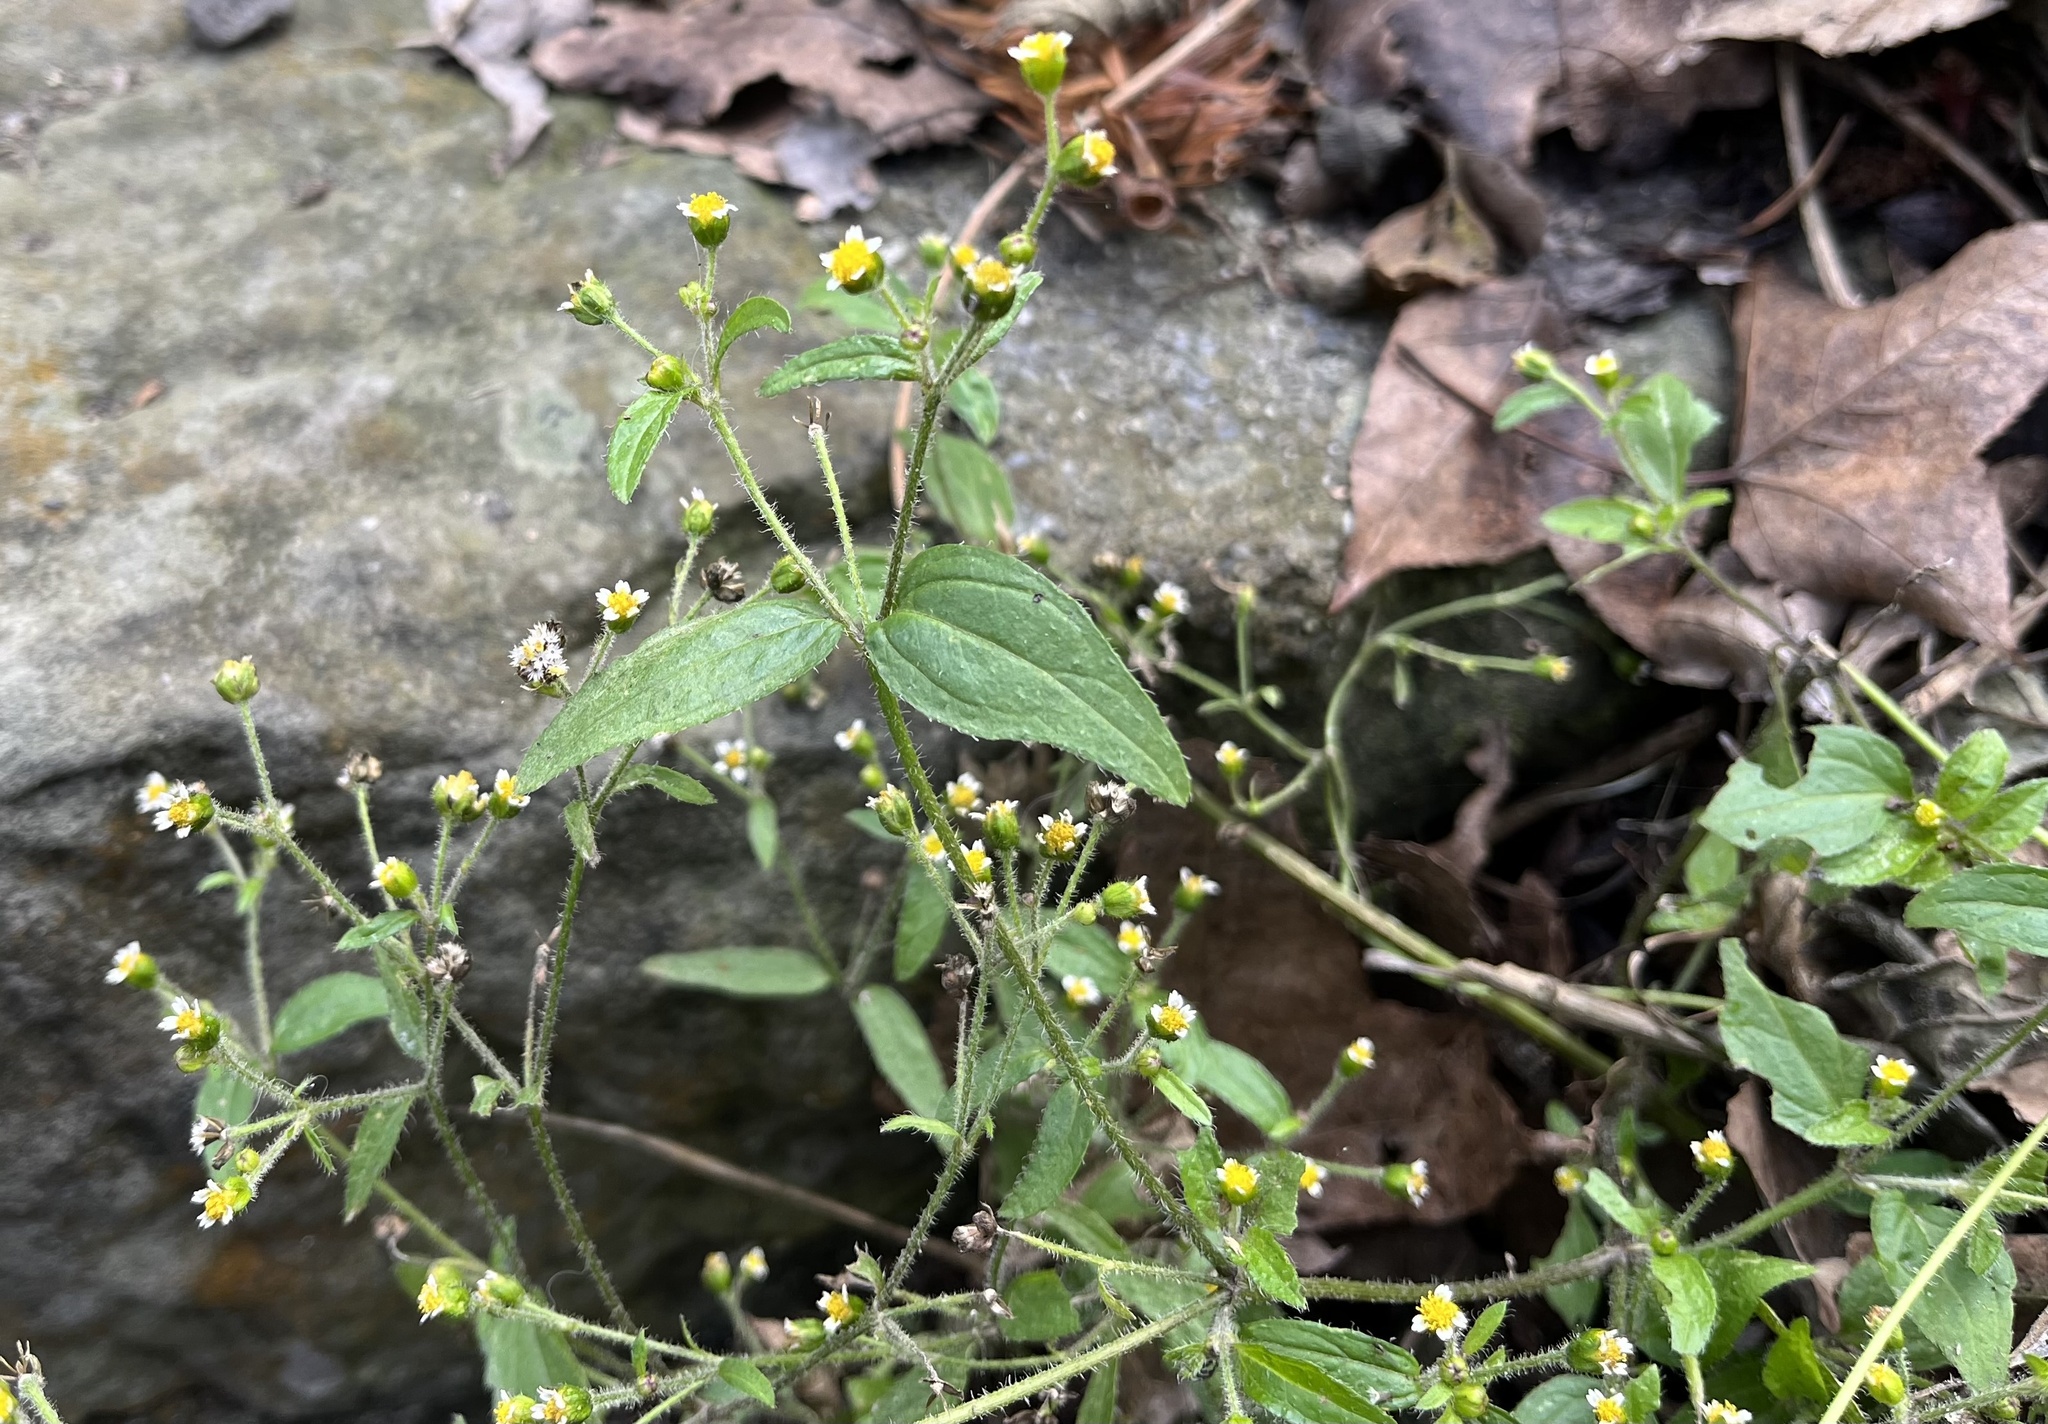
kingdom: Plantae
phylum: Tracheophyta
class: Magnoliopsida
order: Asterales
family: Asteraceae
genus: Galinsoga
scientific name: Galinsoga quadriradiata
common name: Shaggy soldier
